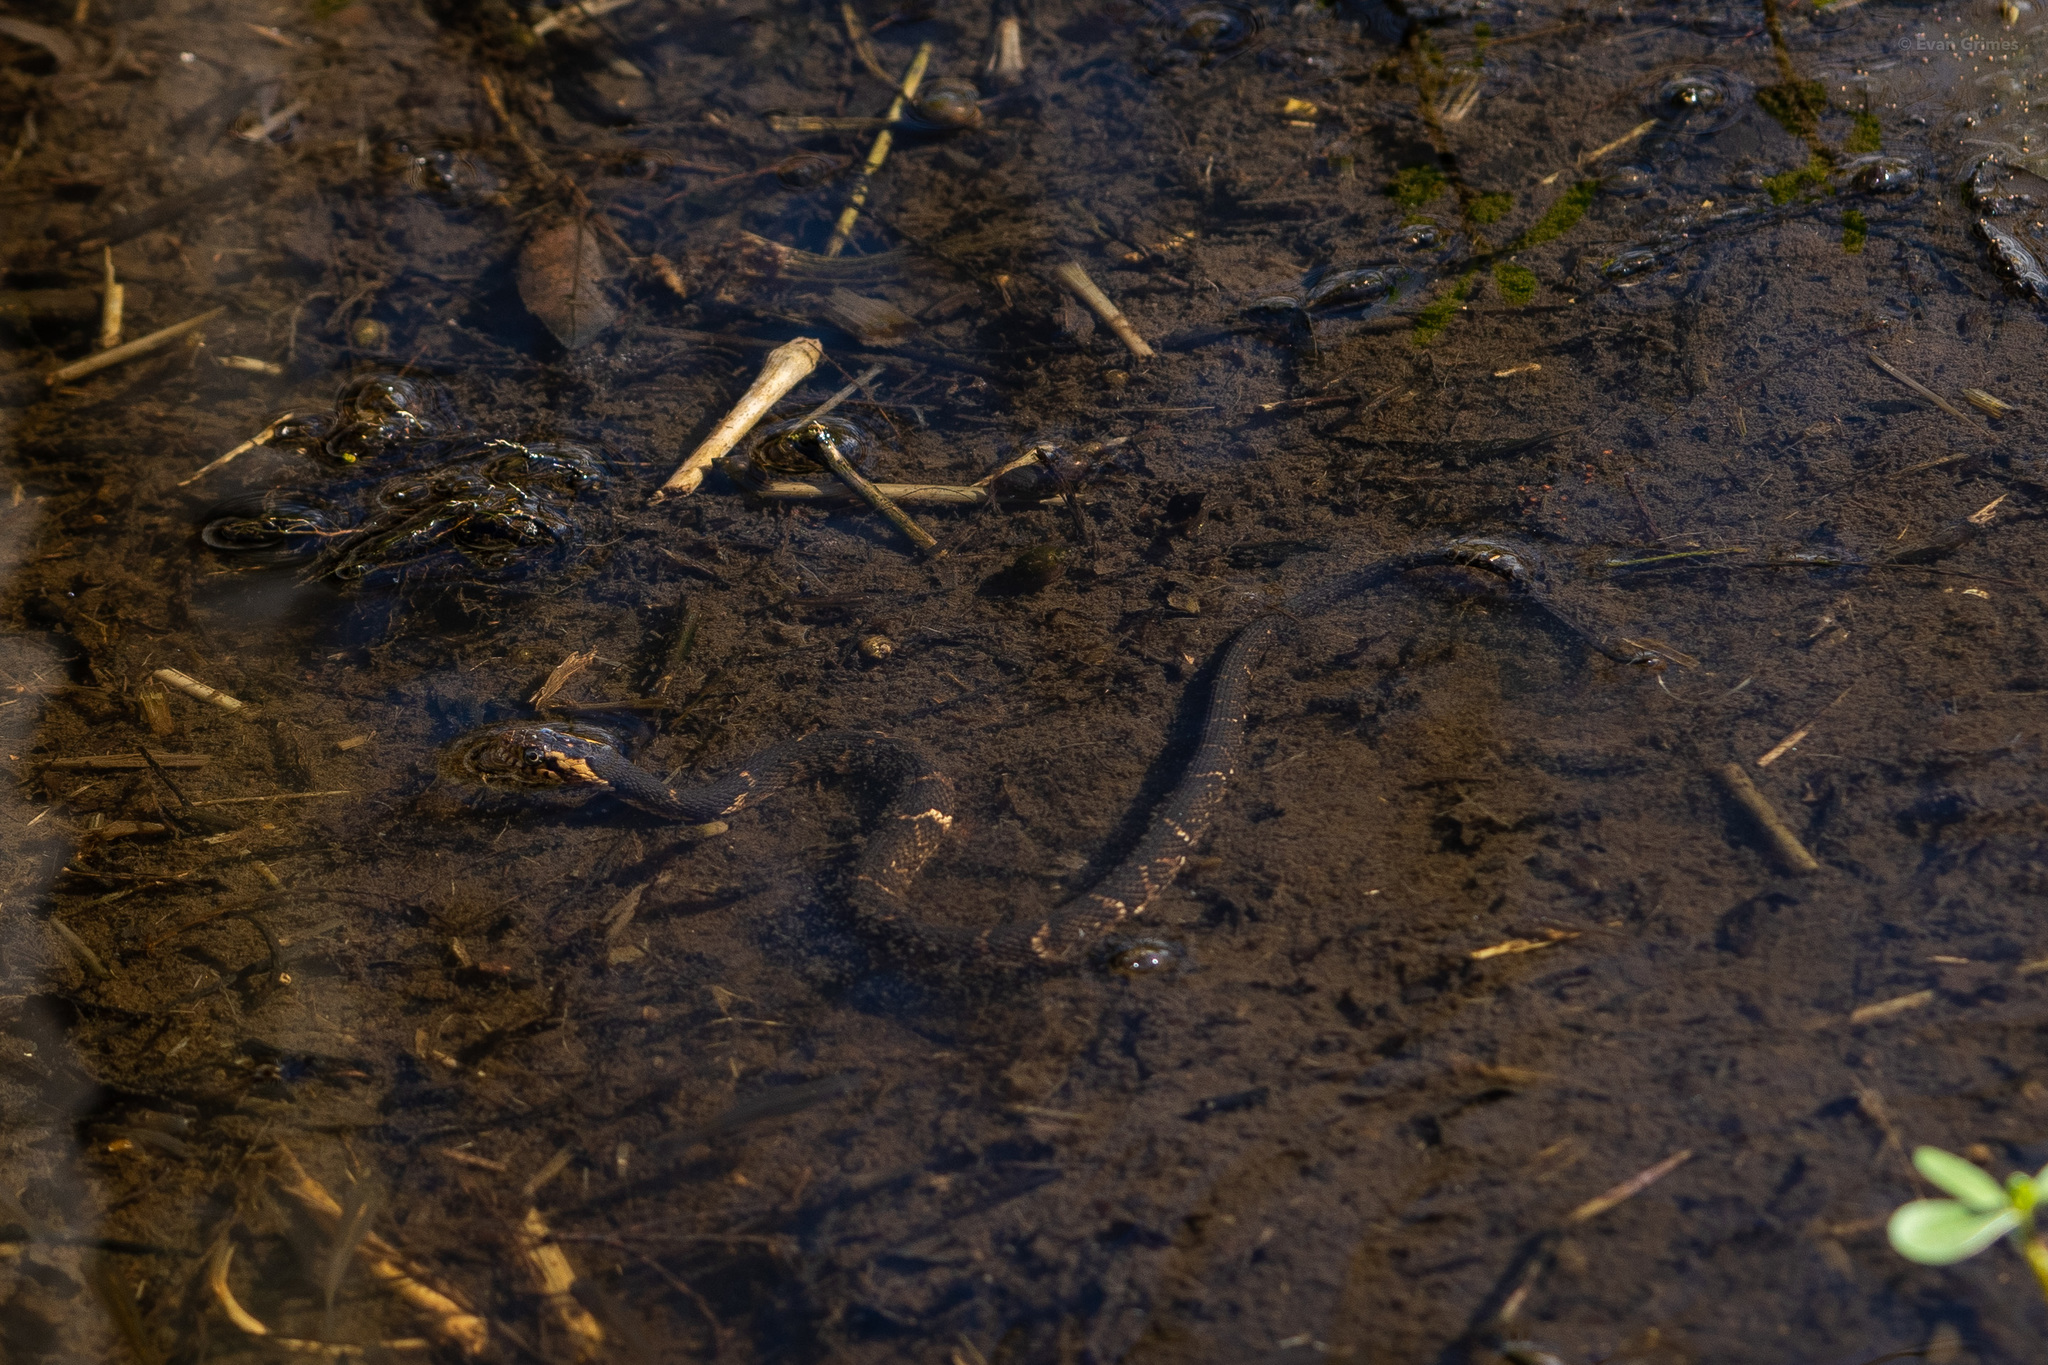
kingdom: Animalia
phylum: Chordata
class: Squamata
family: Colubridae
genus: Nerodia
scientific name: Nerodia fasciata
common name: Southern water snake
